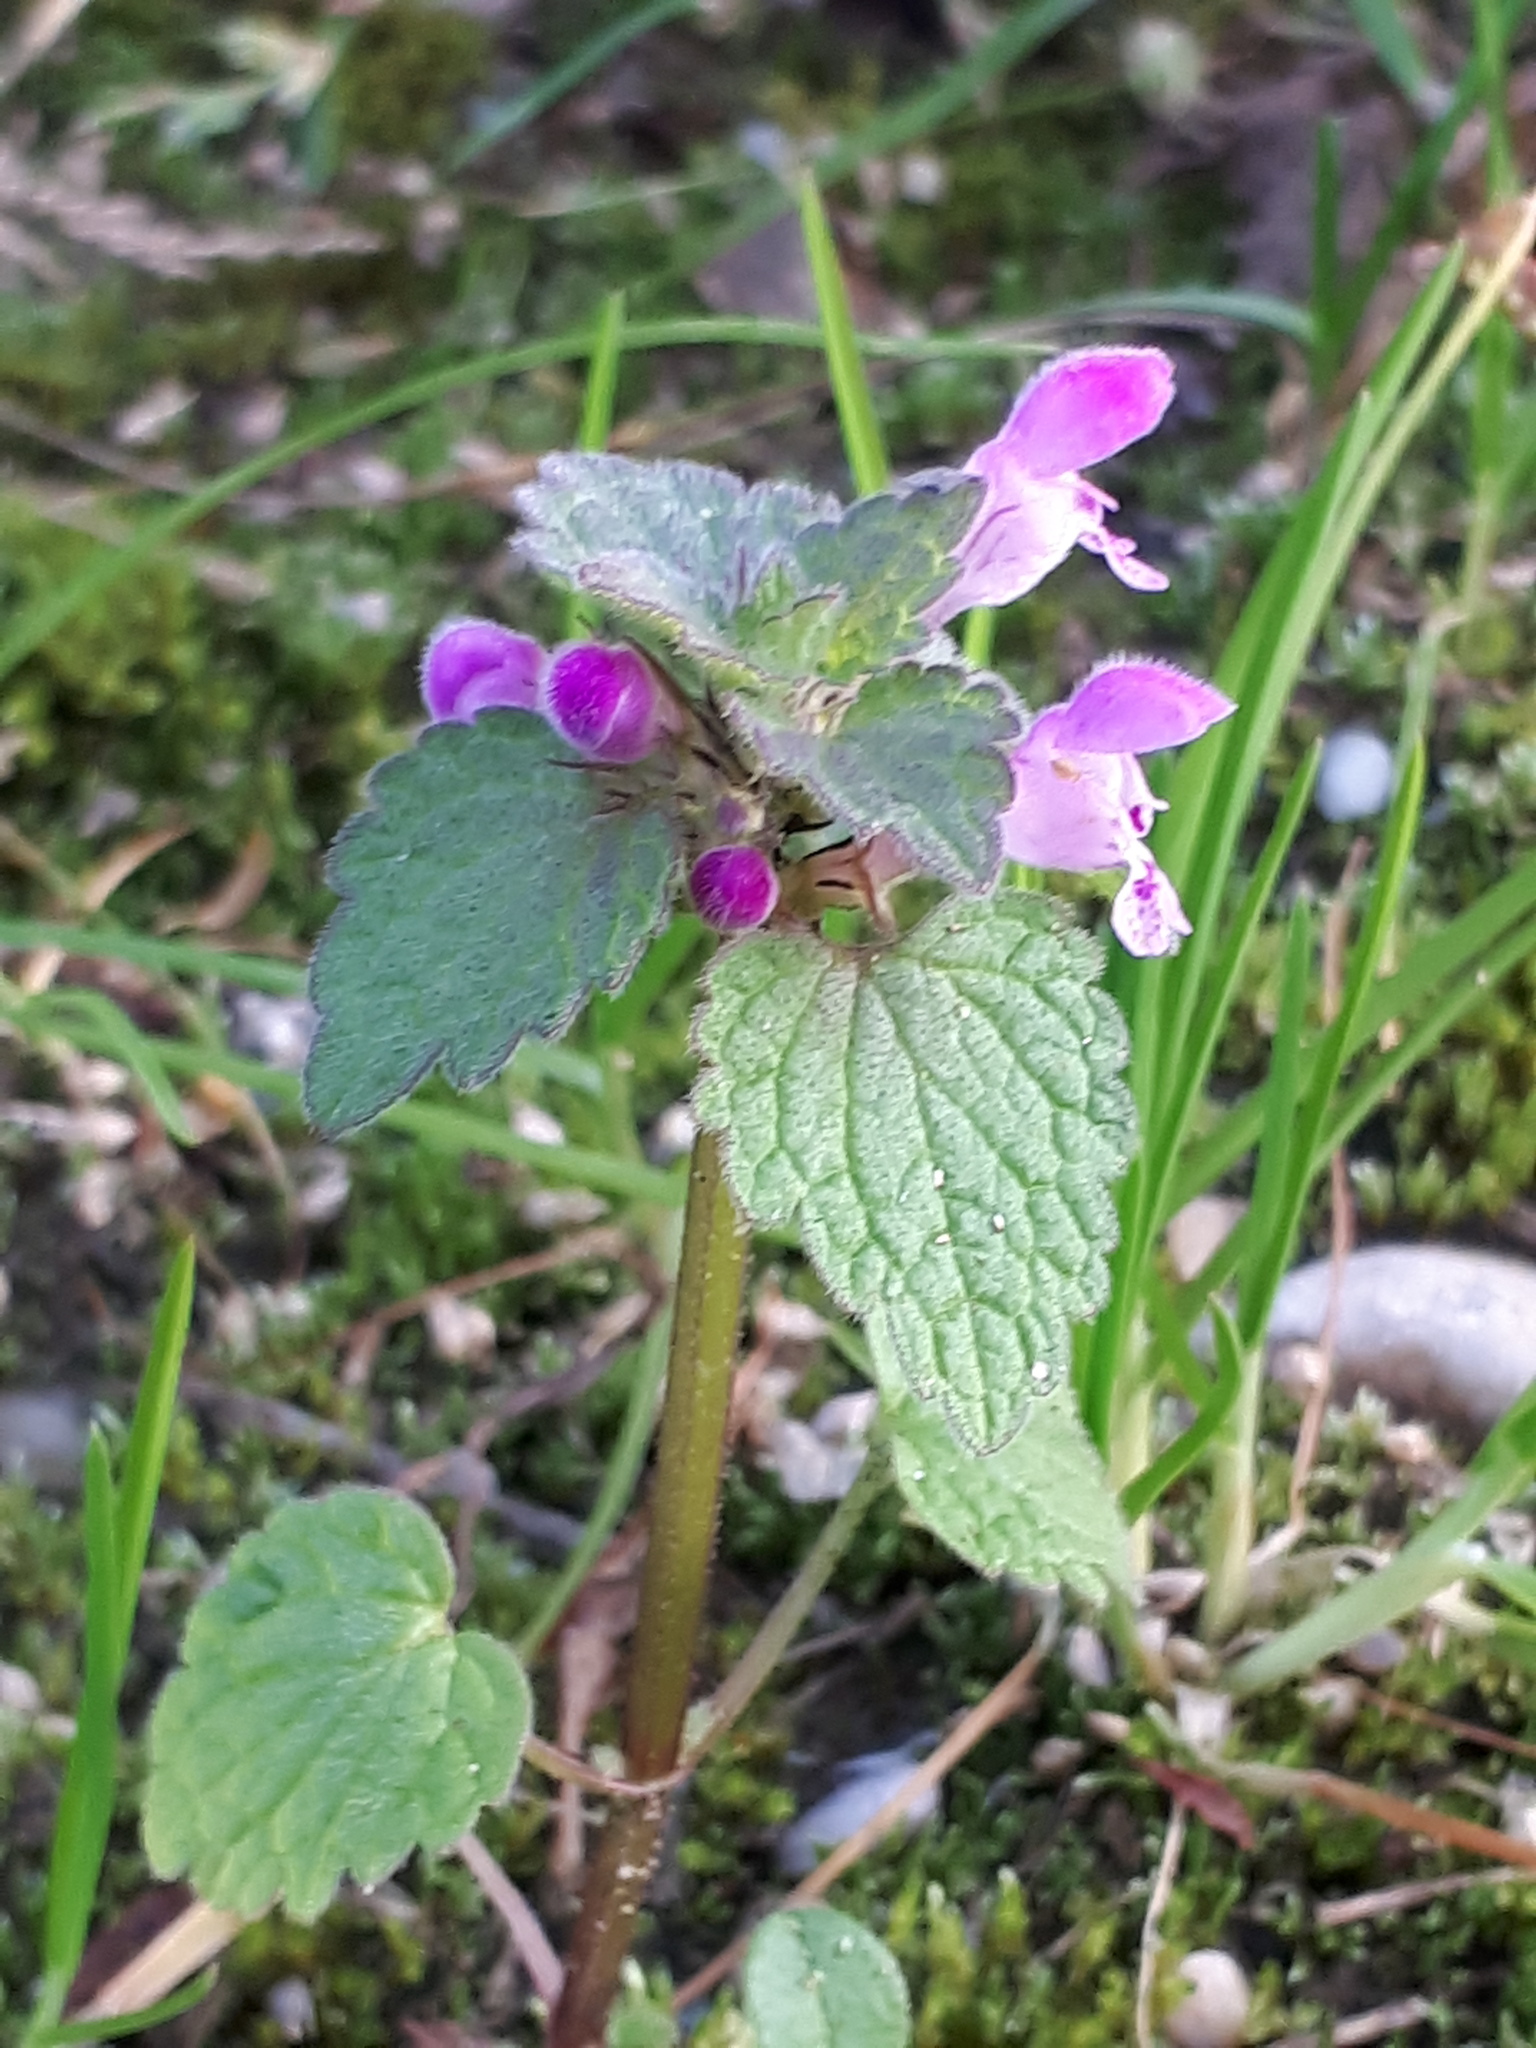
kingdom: Plantae
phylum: Tracheophyta
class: Magnoliopsida
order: Lamiales
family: Lamiaceae
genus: Lamium
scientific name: Lamium purpureum
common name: Red dead-nettle
